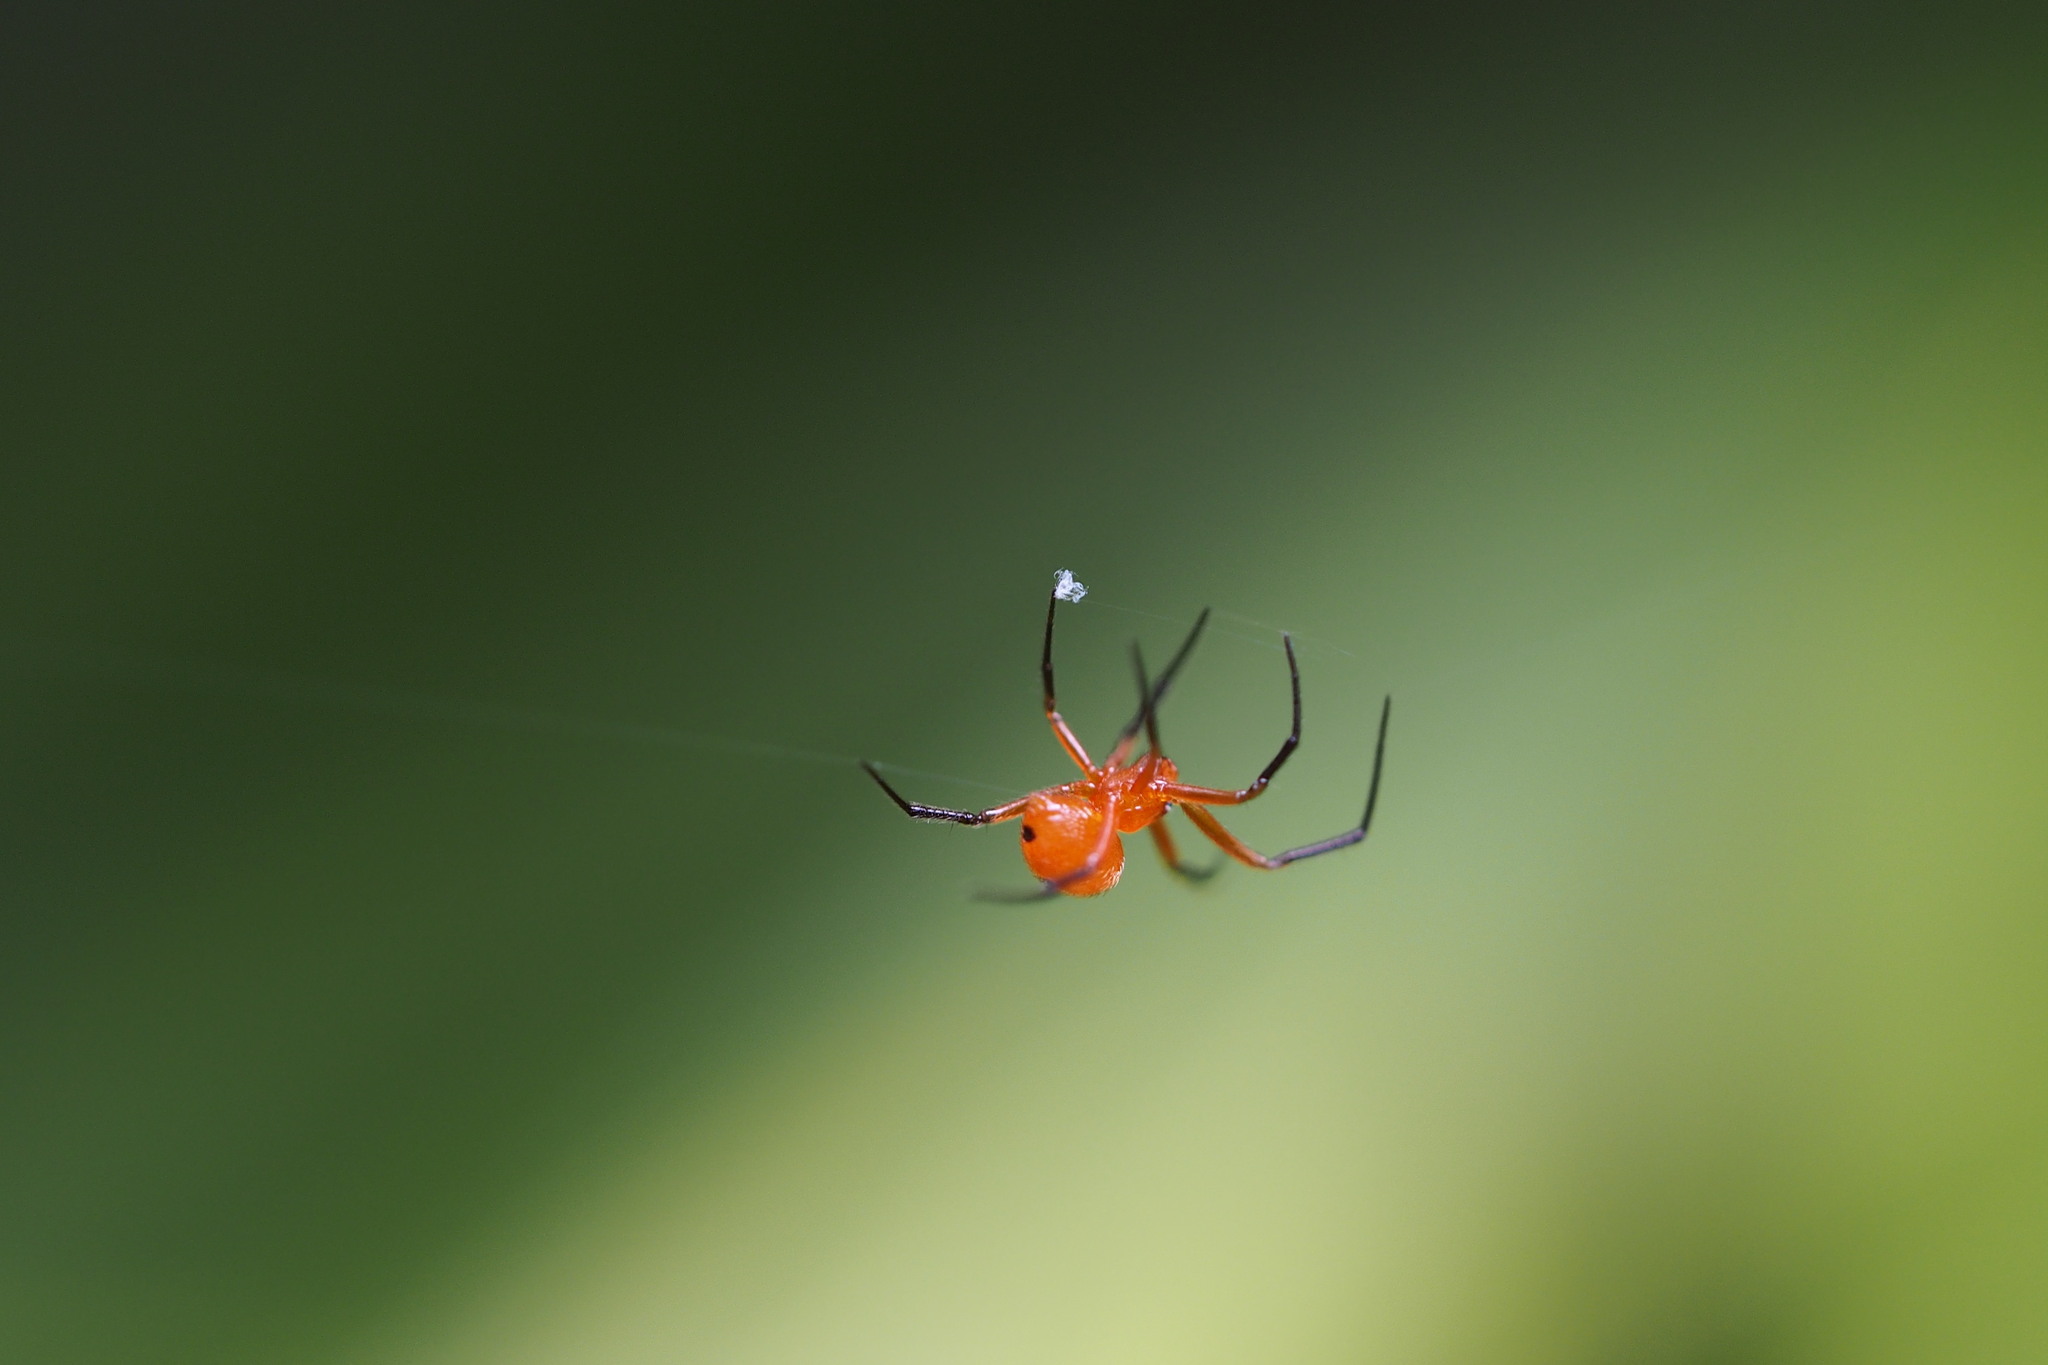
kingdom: Animalia
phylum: Arthropoda
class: Arachnida
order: Araneae
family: Theridiidae
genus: Nihonhimea
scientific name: Nihonhimea japonica
